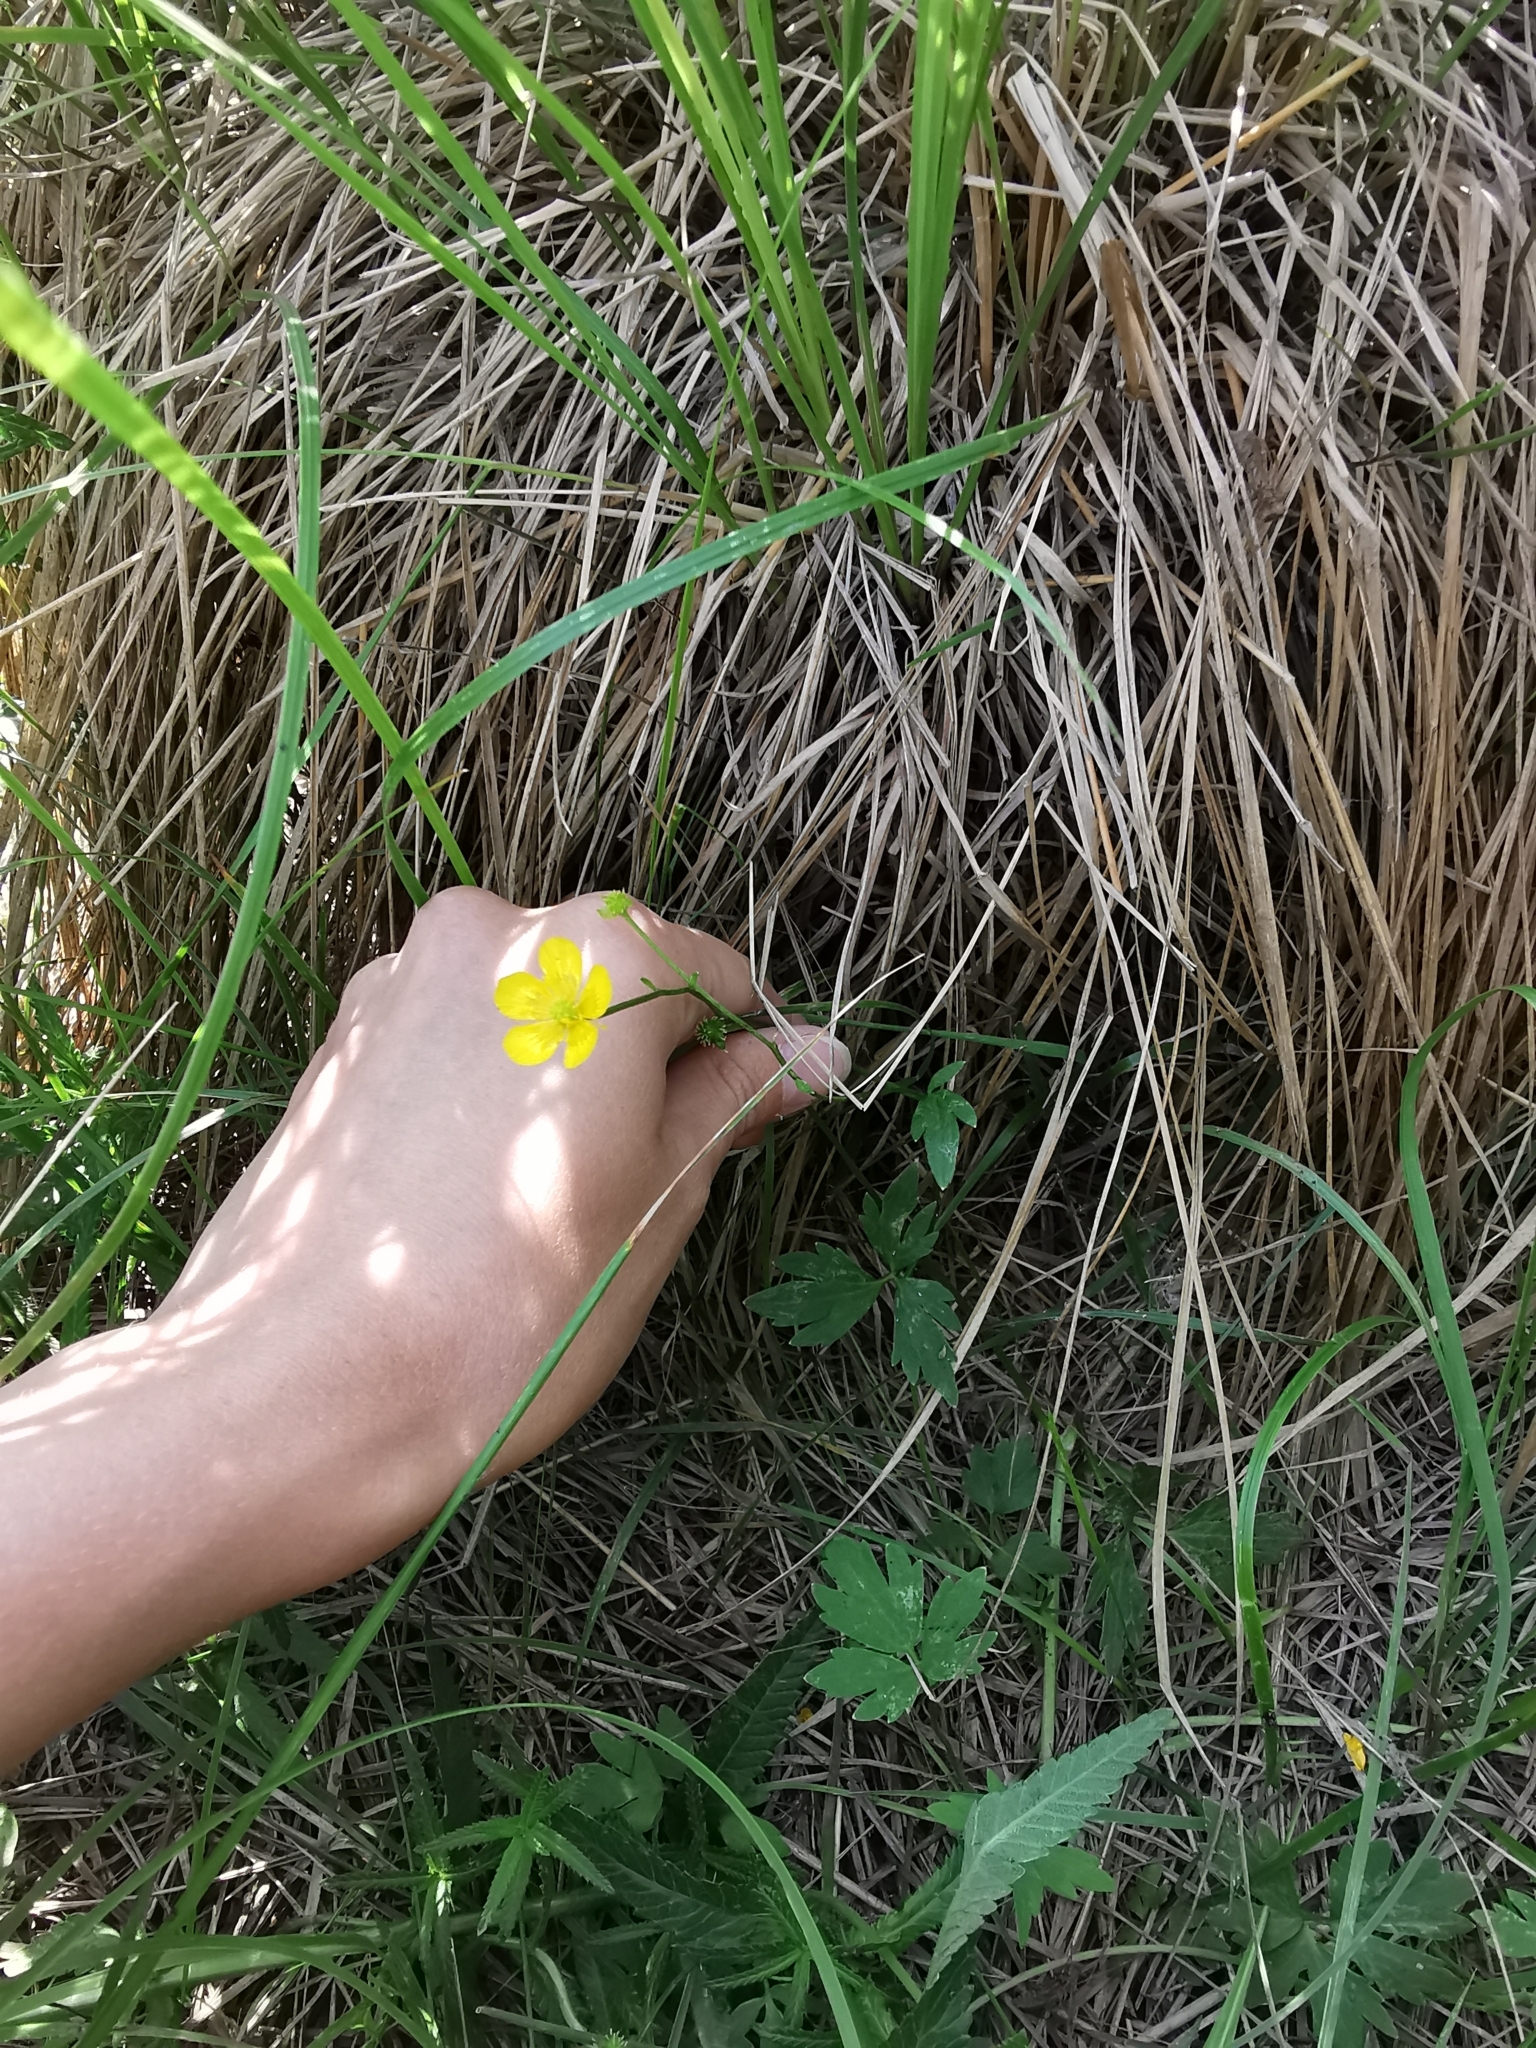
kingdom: Plantae
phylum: Tracheophyta
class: Magnoliopsida
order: Ranunculales
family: Ranunculaceae
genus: Ranunculus
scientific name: Ranunculus repens
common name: Creeping buttercup
